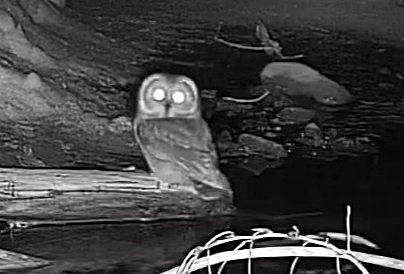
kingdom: Animalia
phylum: Chordata
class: Aves
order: Strigiformes
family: Strigidae
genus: Aegolius
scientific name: Aegolius acadicus
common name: Northern saw-whet owl
